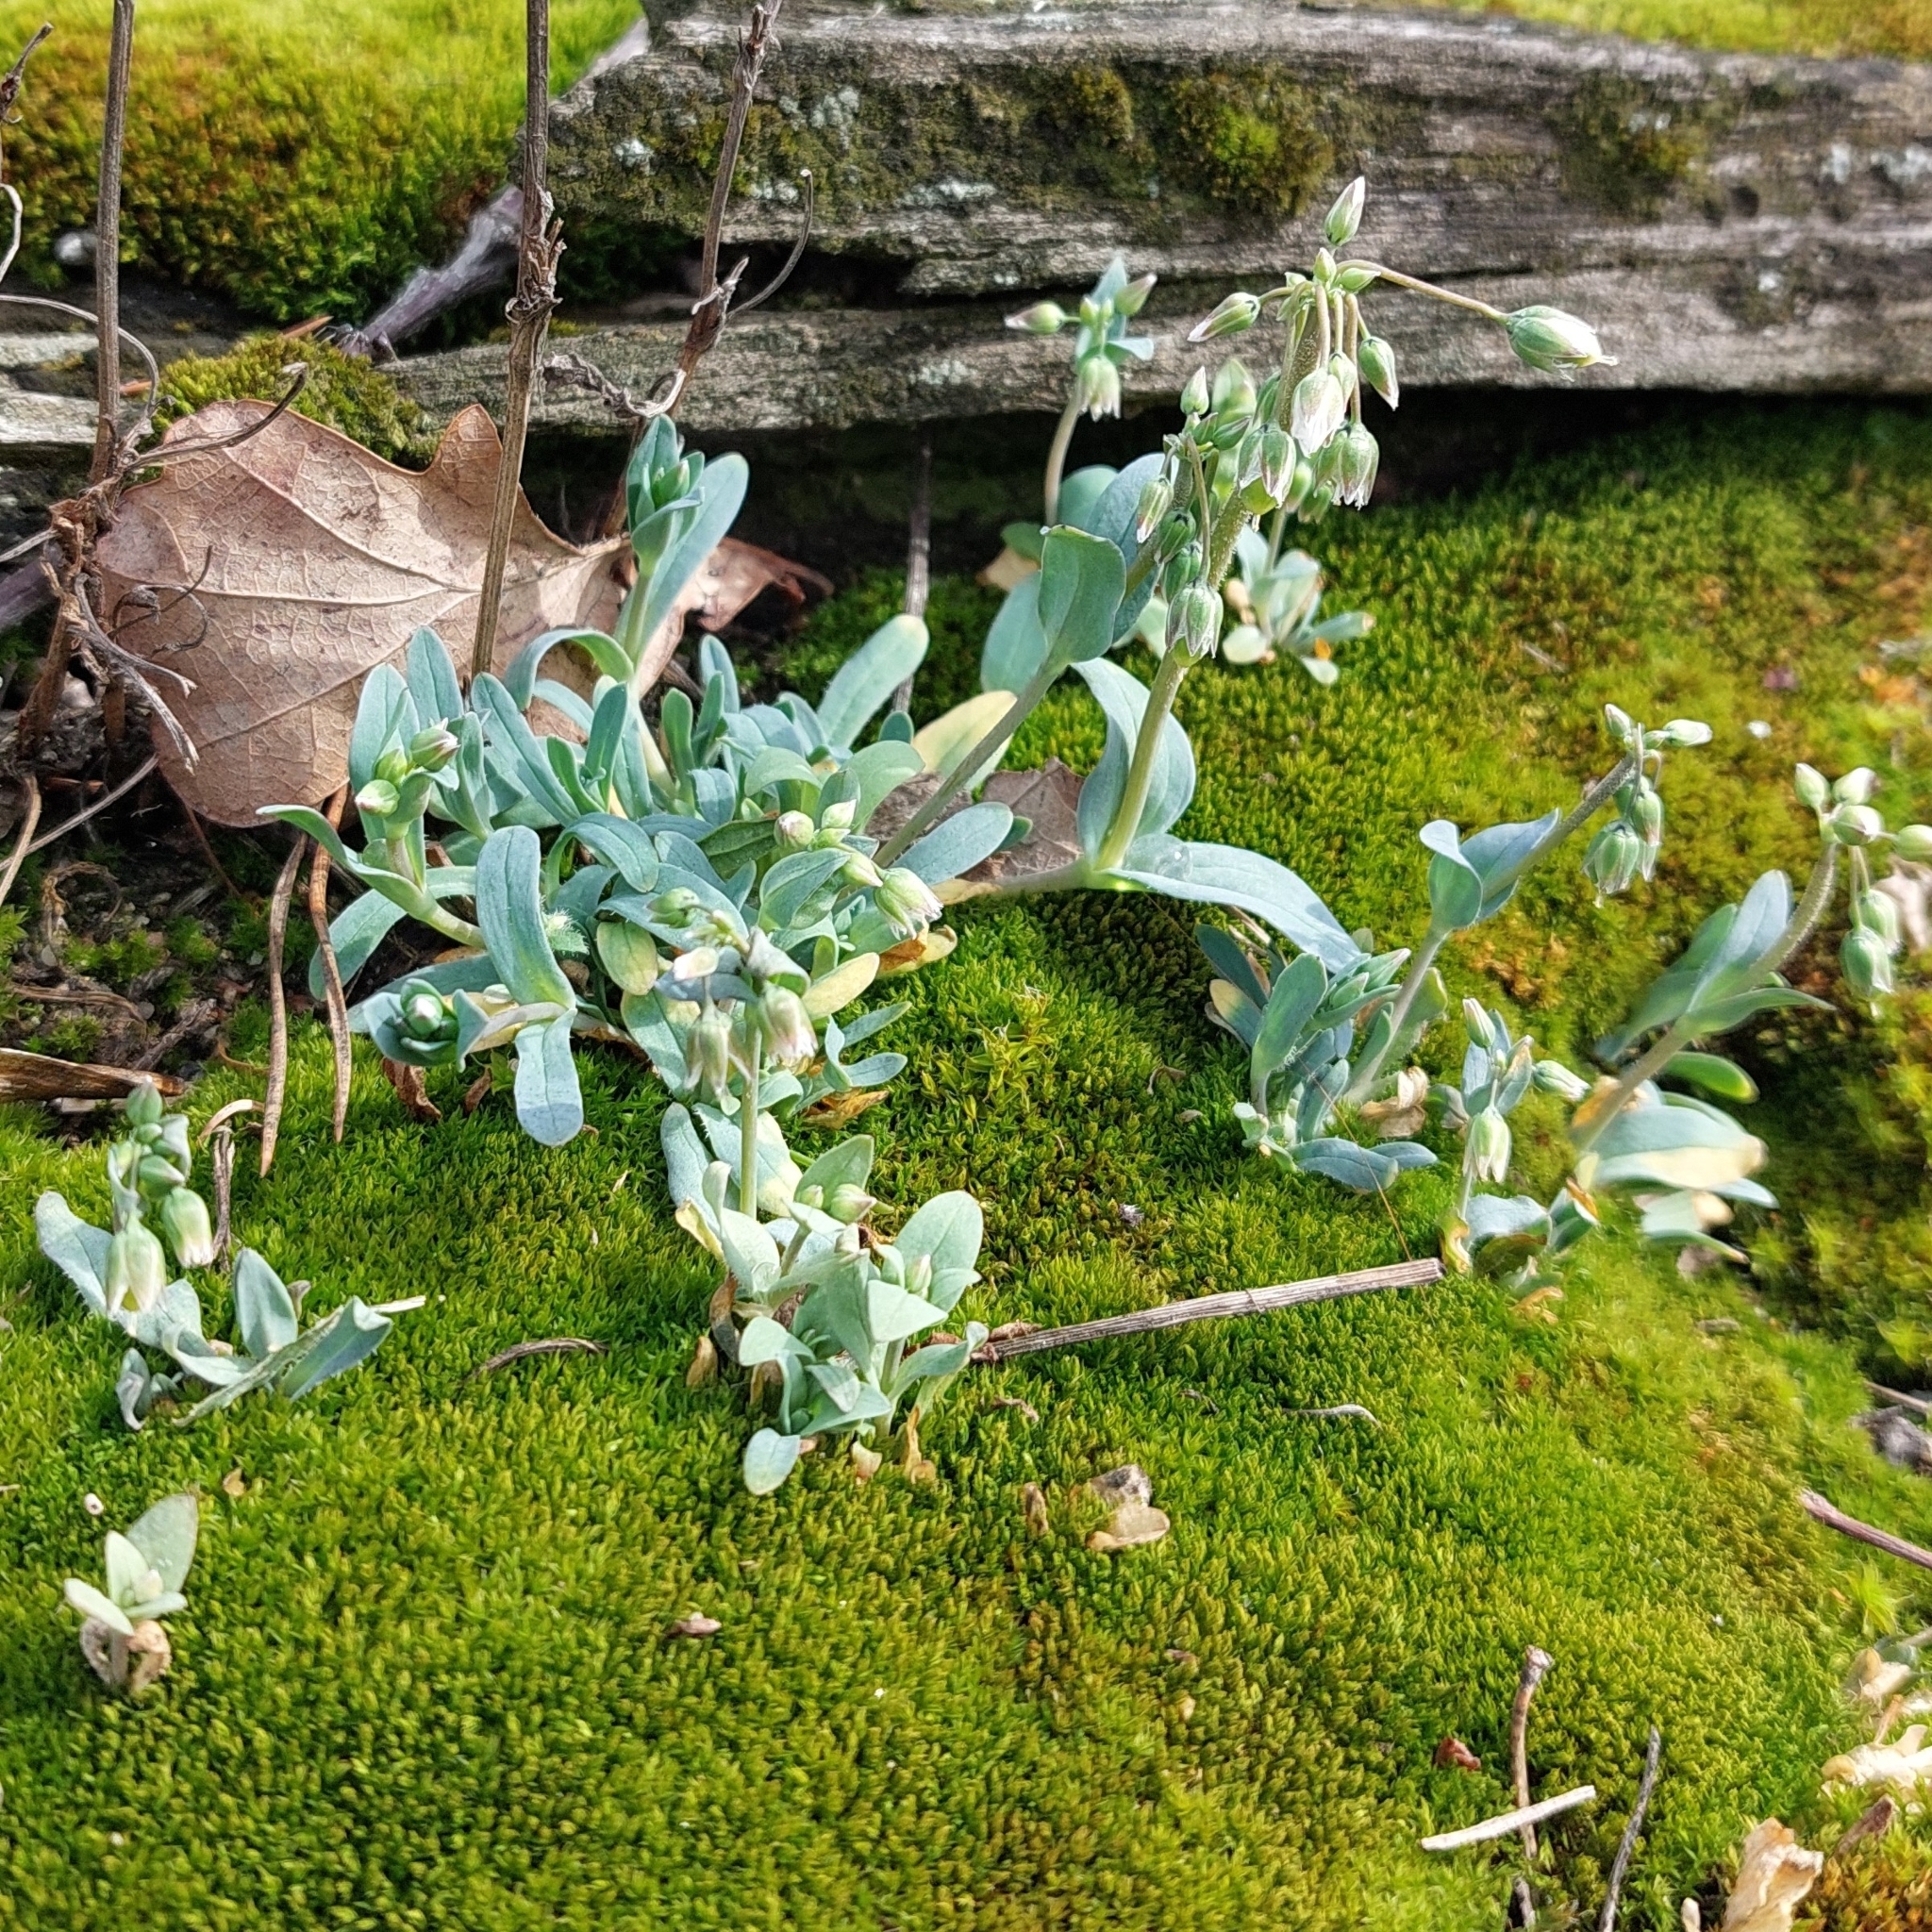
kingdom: Plantae
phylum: Tracheophyta
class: Magnoliopsida
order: Caryophyllales
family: Caryophyllaceae
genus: Holosteum
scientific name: Holosteum umbellatum
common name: Jagged chickweed
